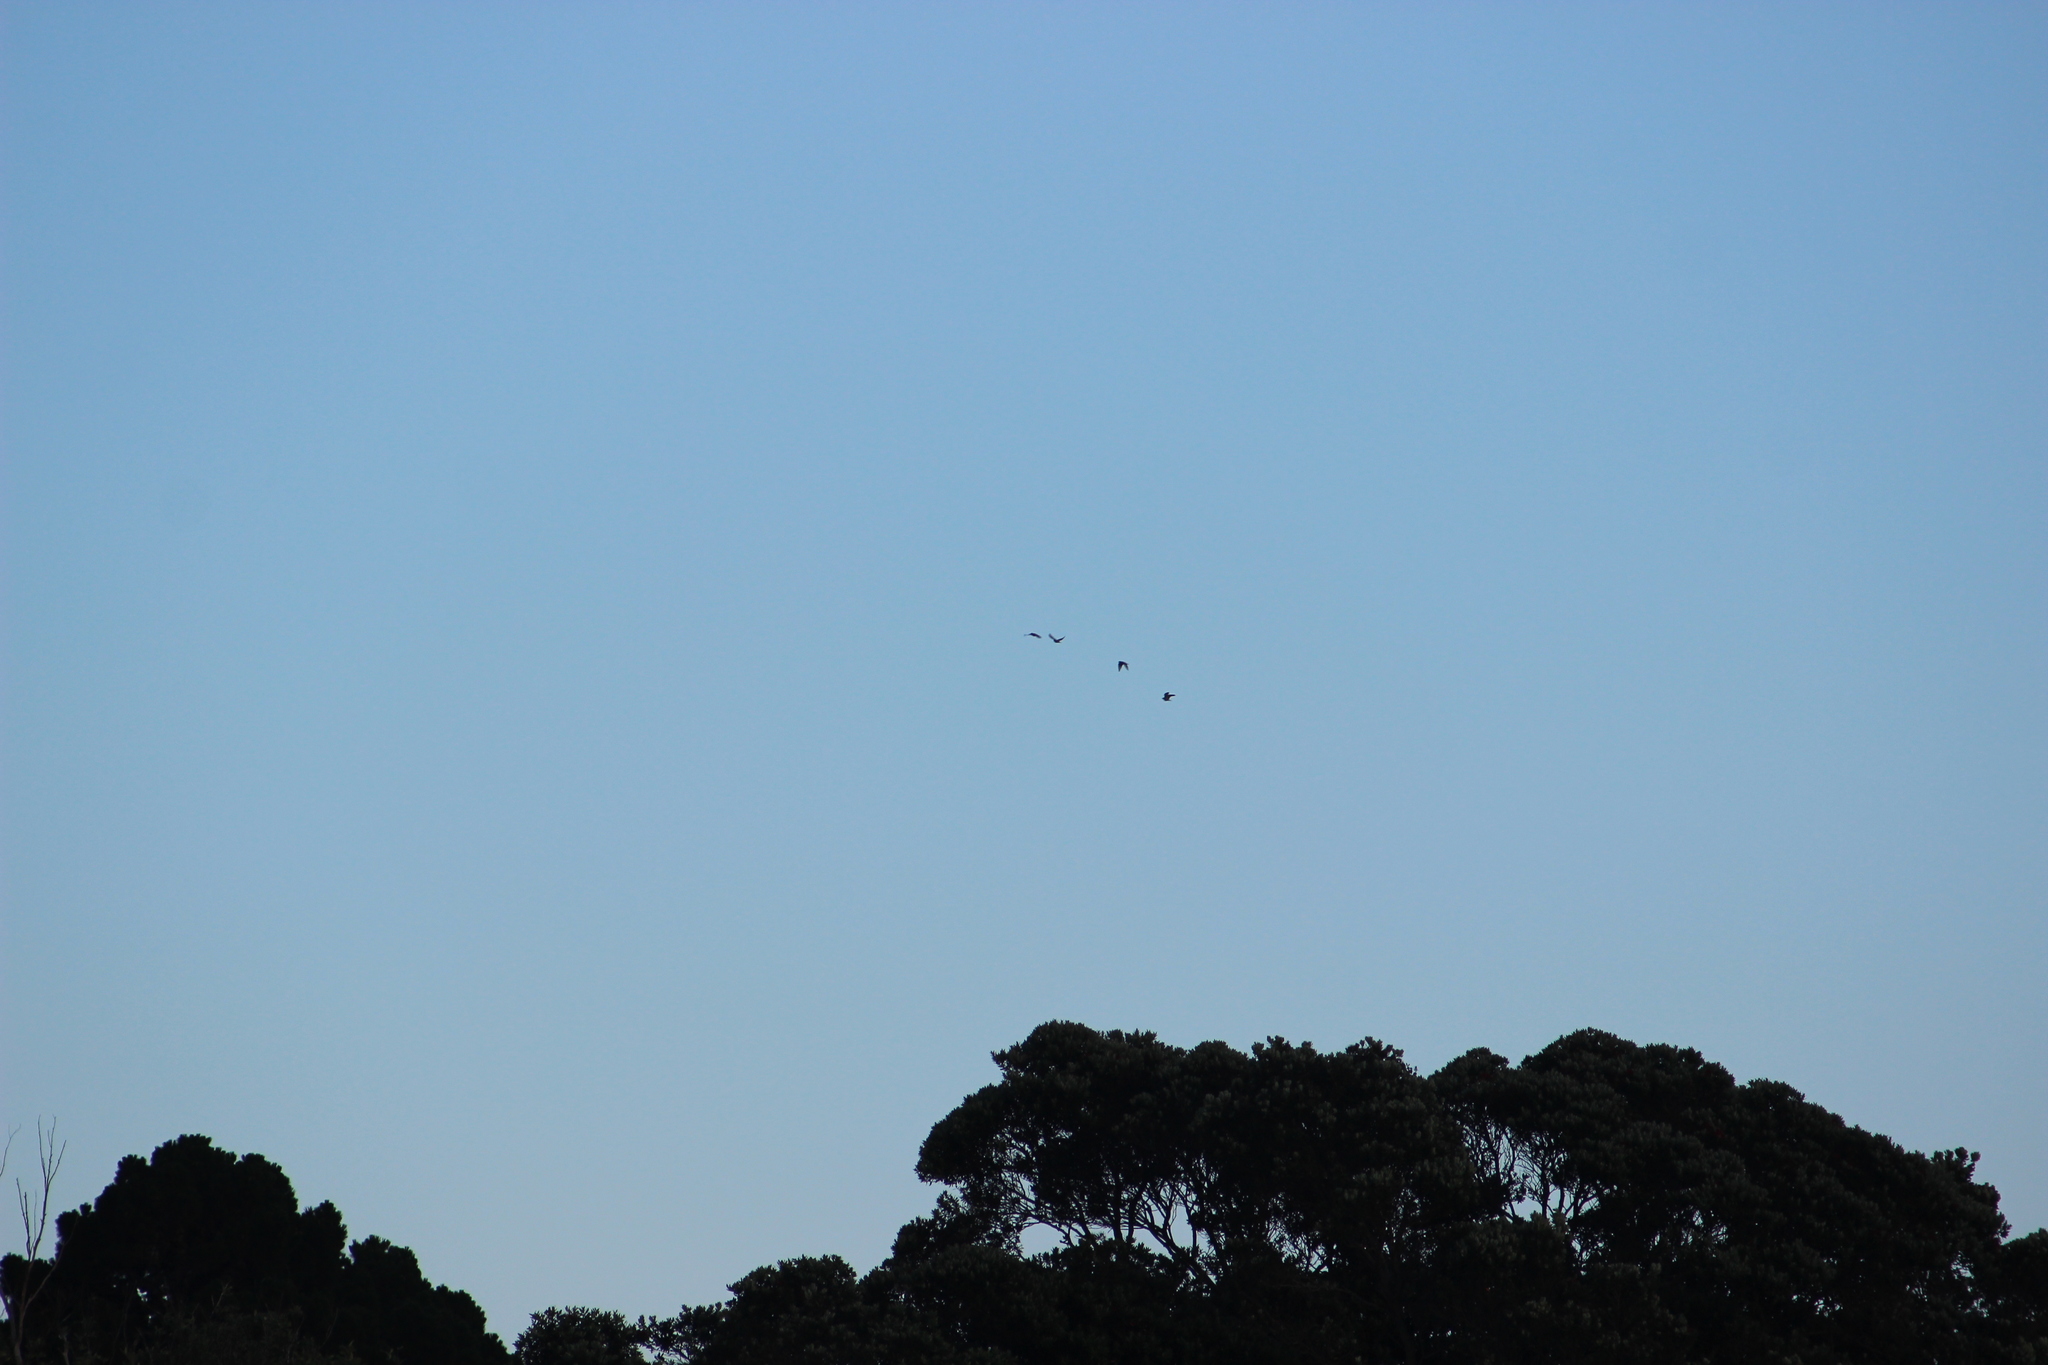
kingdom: Animalia
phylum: Chordata
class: Aves
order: Columbiformes
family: Columbidae
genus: Columba
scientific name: Columba livia
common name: Rock pigeon
